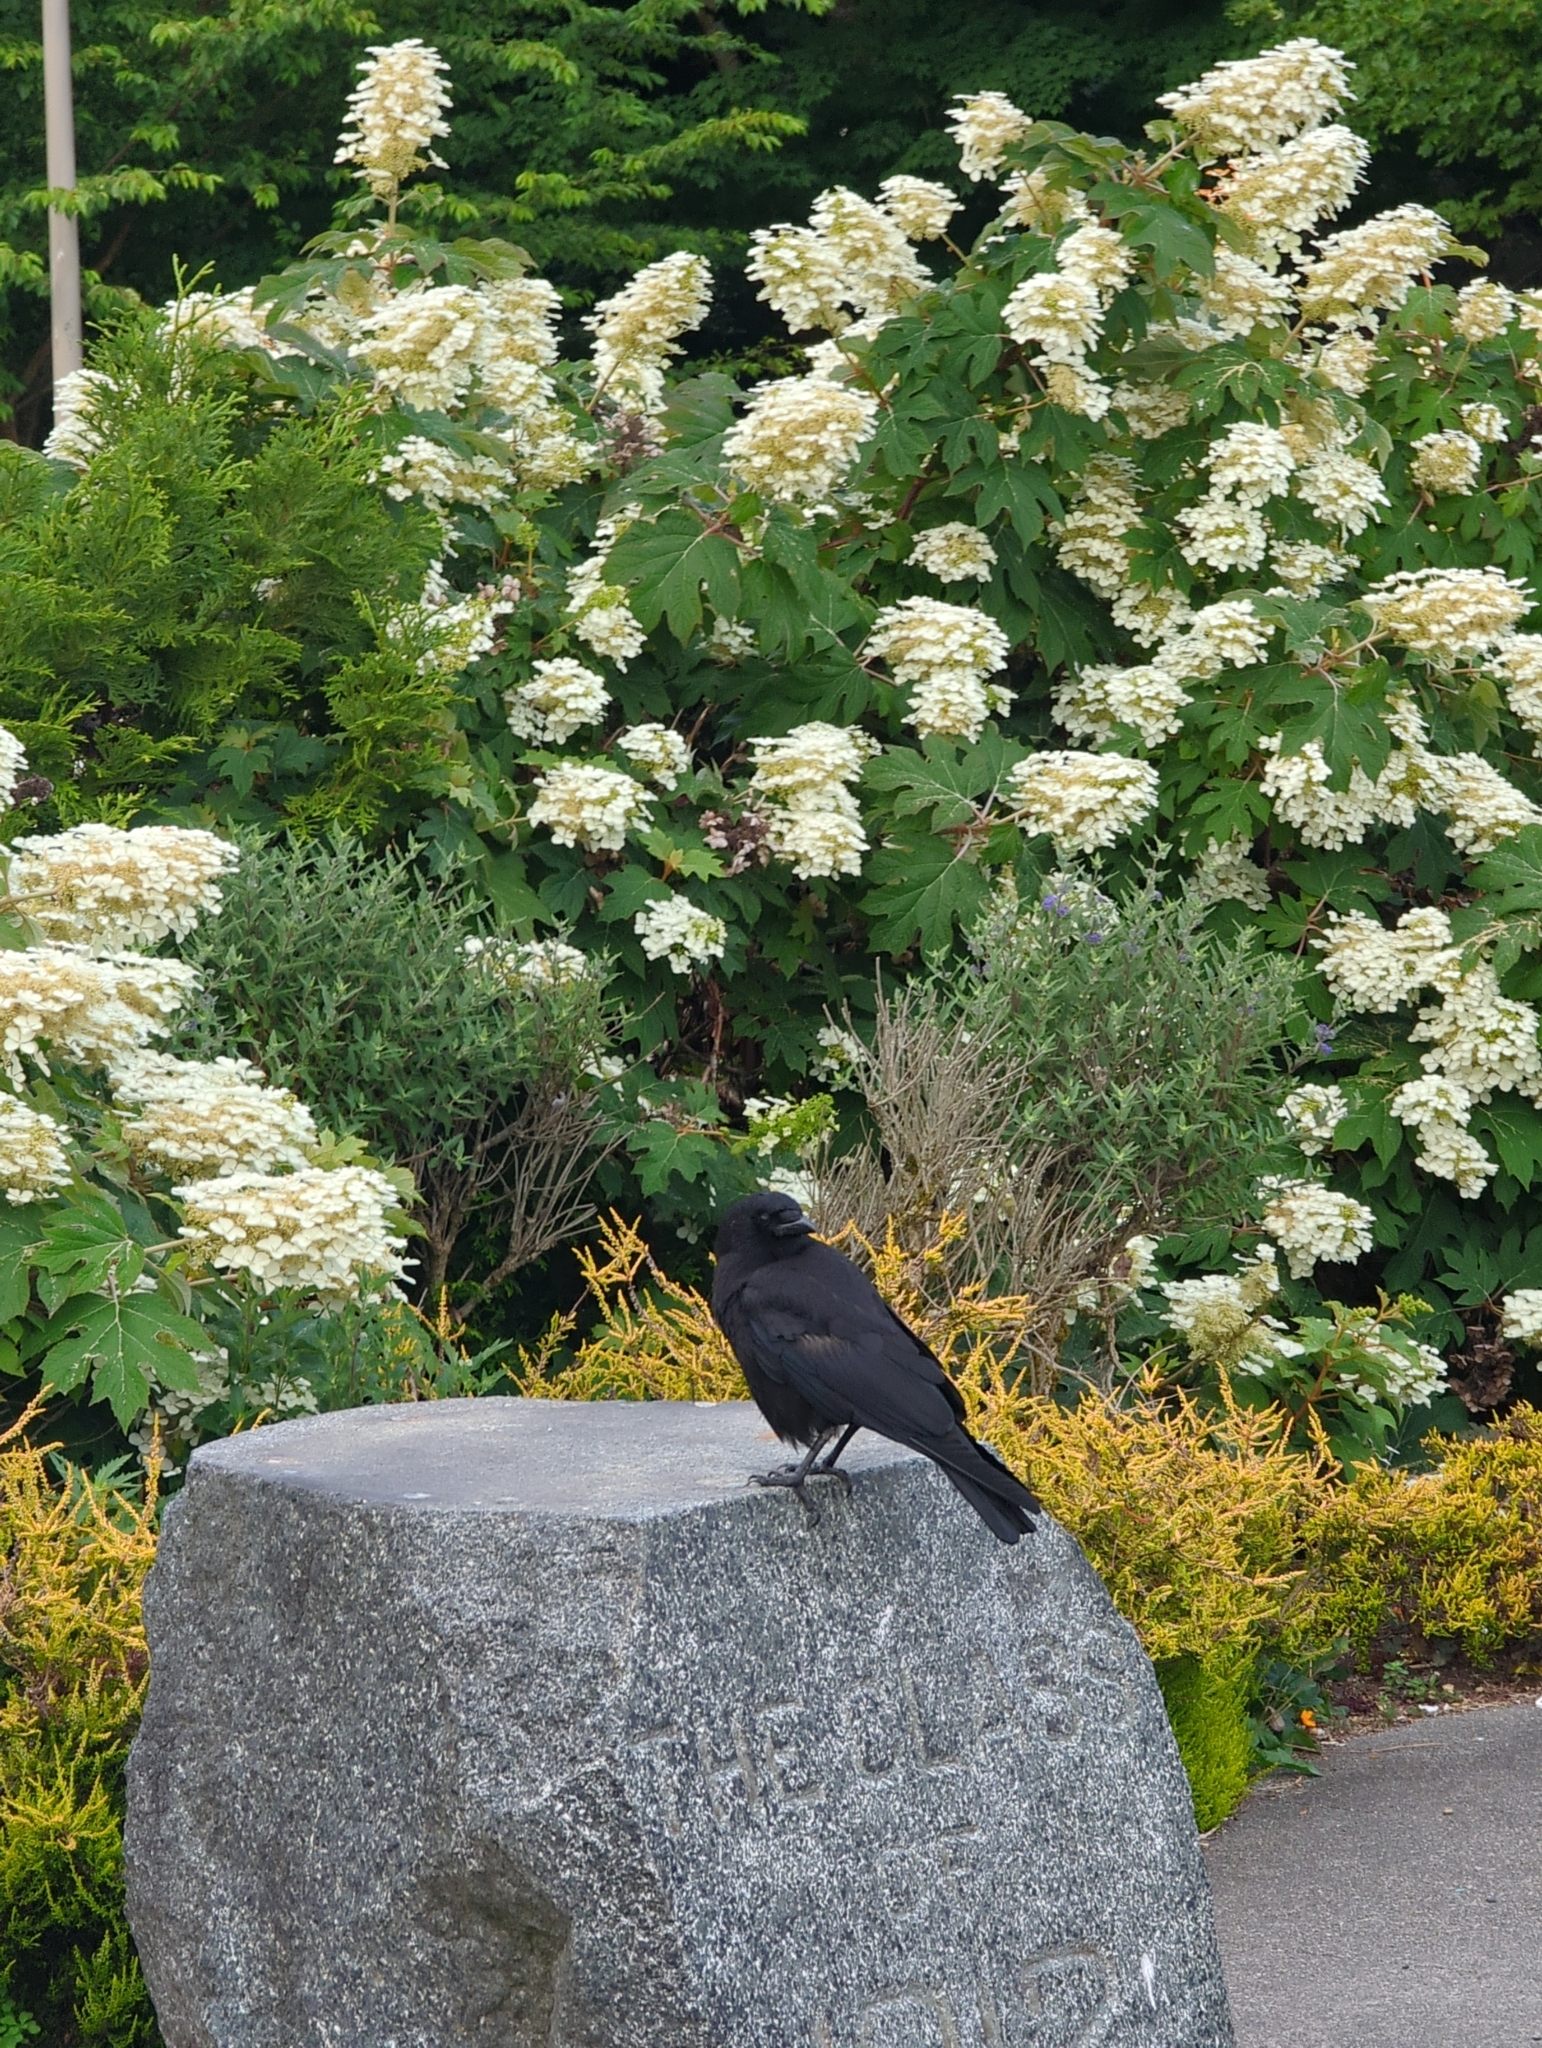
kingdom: Animalia
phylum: Chordata
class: Aves
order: Passeriformes
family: Corvidae
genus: Corvus
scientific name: Corvus brachyrhynchos
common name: American crow
